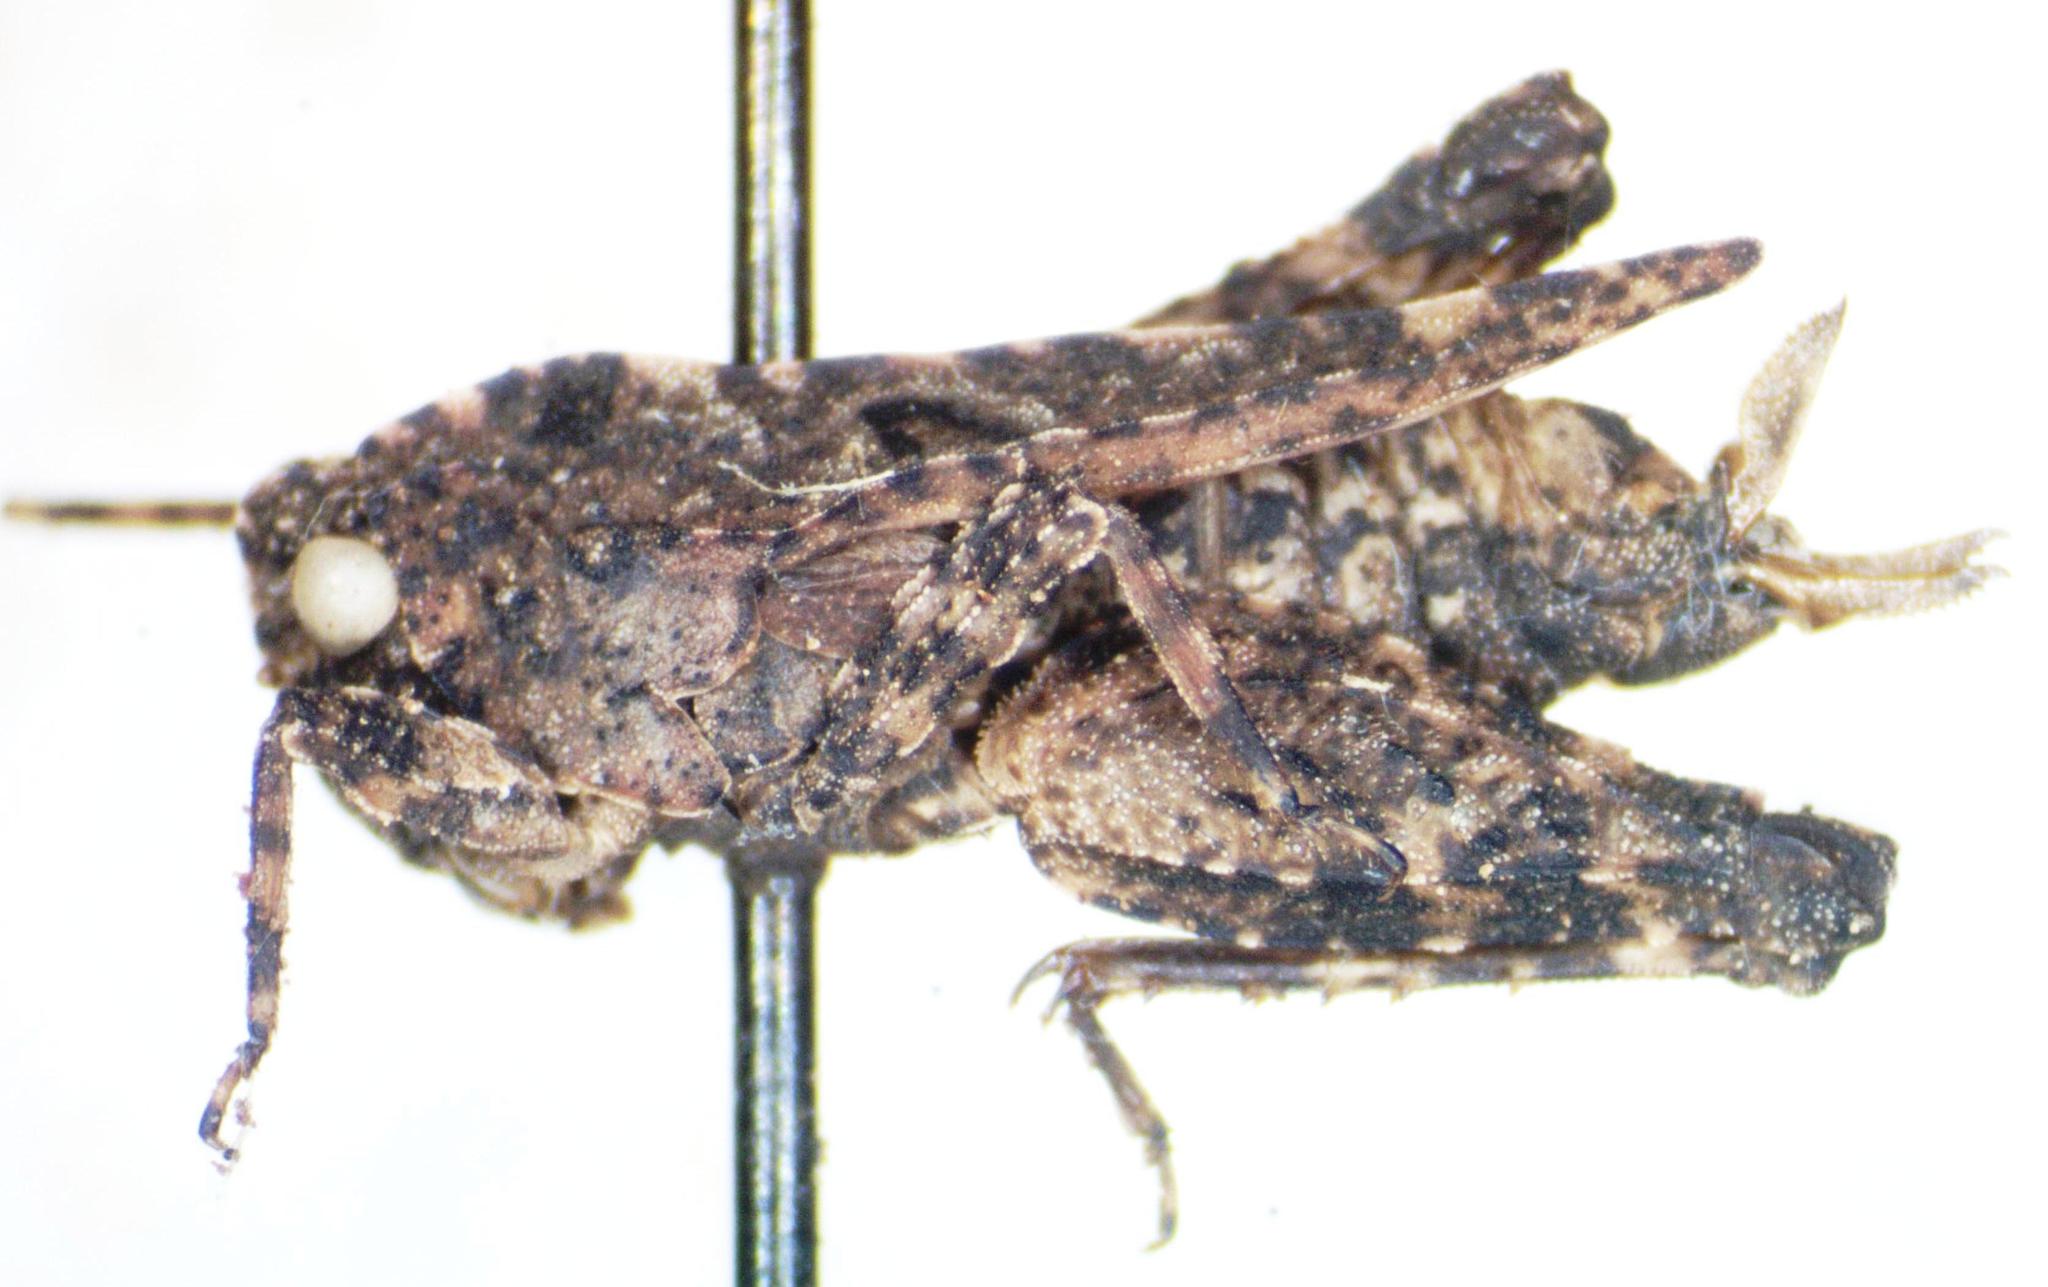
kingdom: Animalia
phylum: Arthropoda
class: Insecta
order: Orthoptera
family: Tetrigidae
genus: Ochetotettix
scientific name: Ochetotettix barretti
